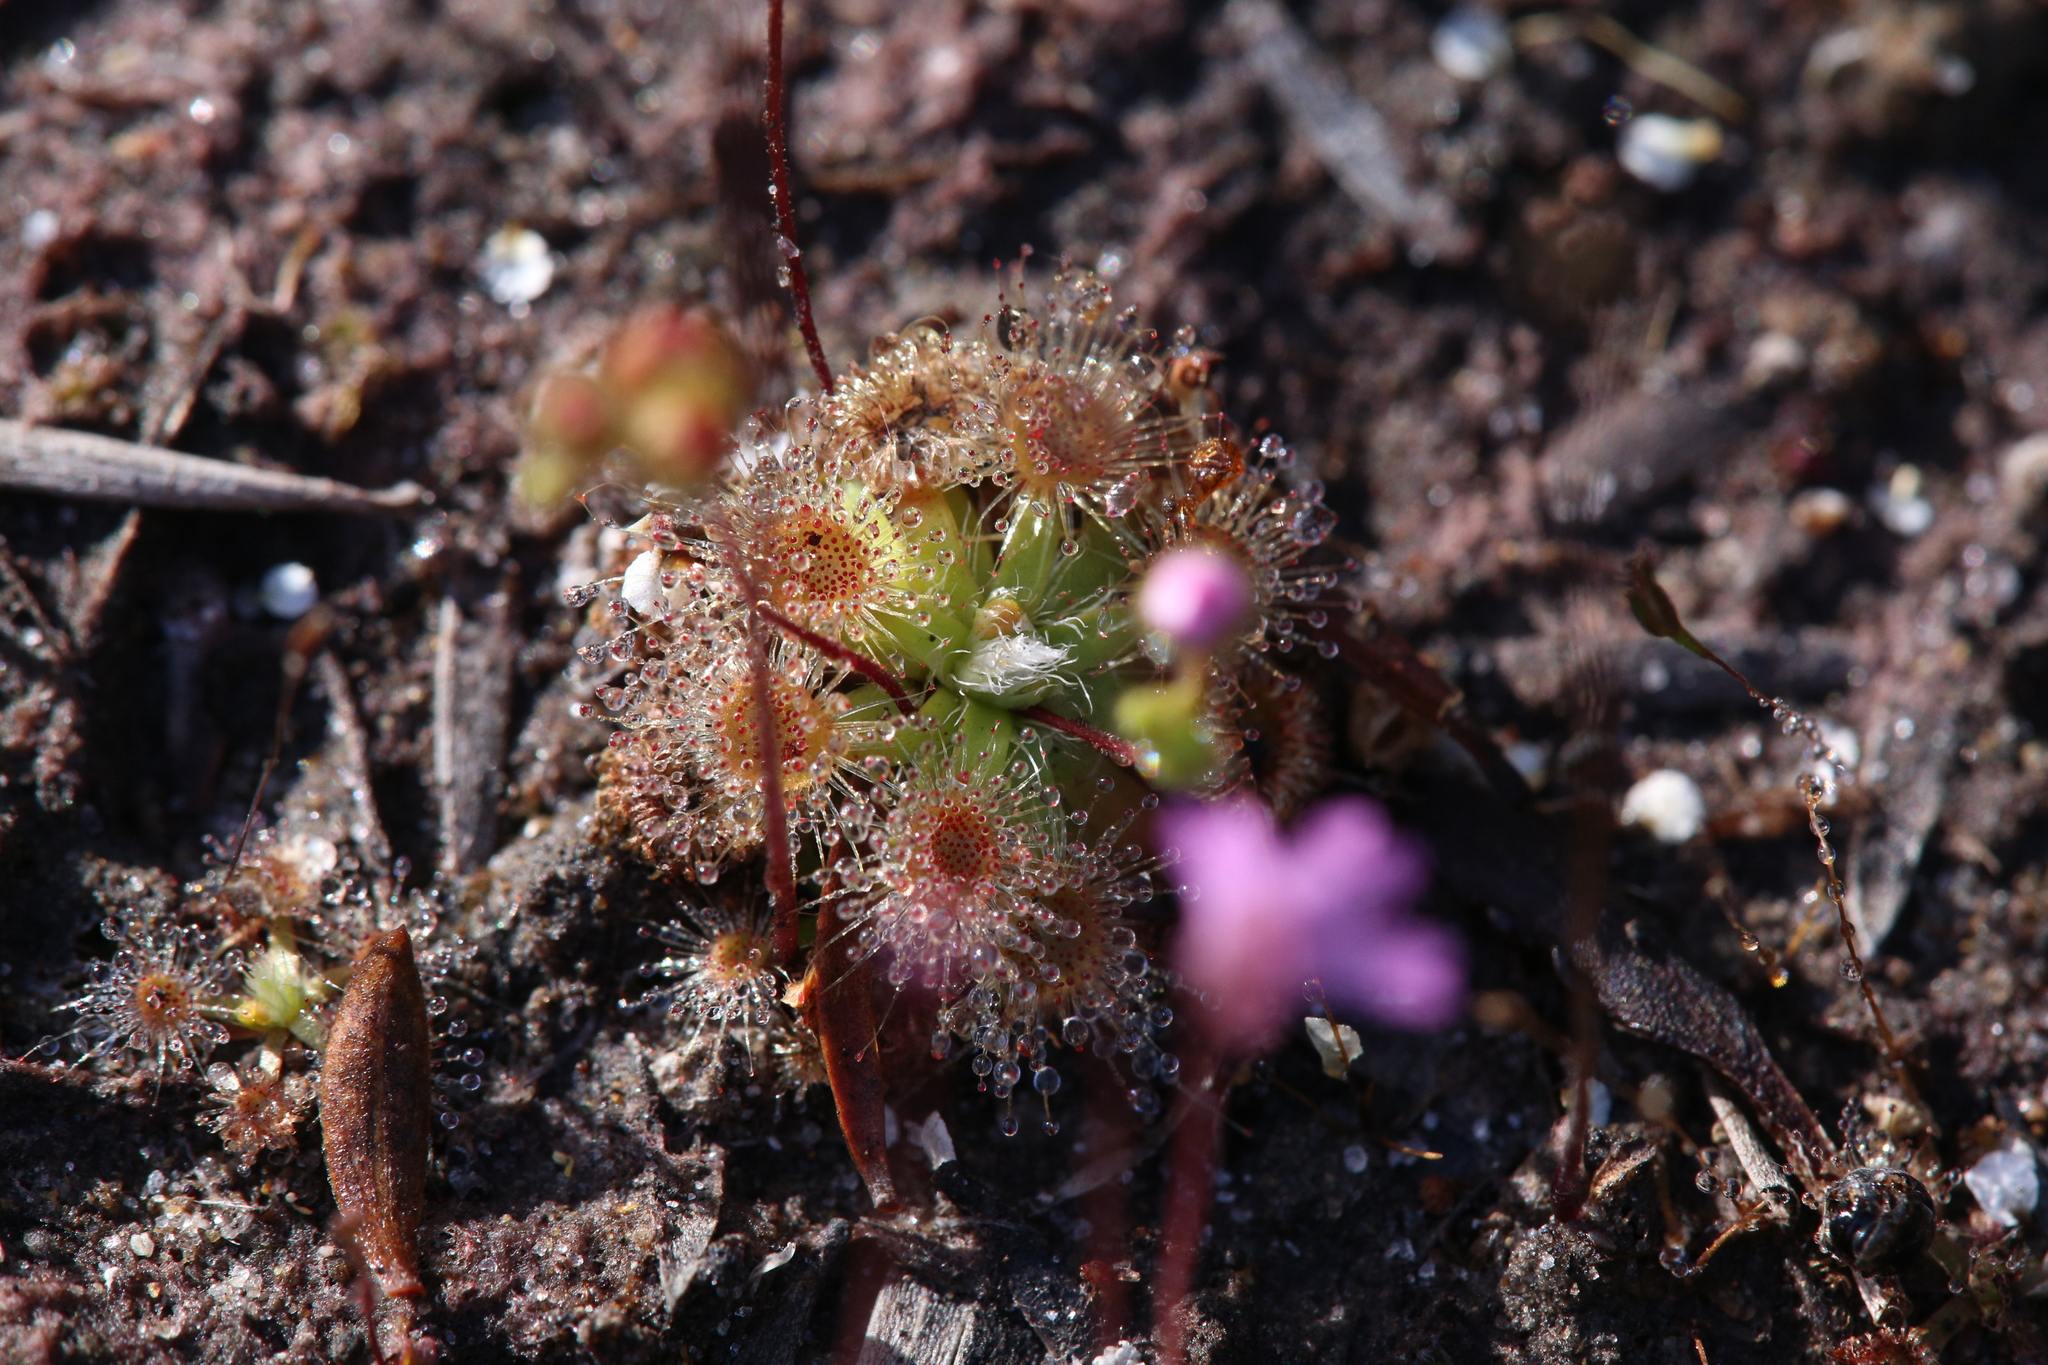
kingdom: Plantae
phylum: Tracheophyta
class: Magnoliopsida
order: Caryophyllales
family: Droseraceae
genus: Drosera
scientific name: Drosera pulchella
